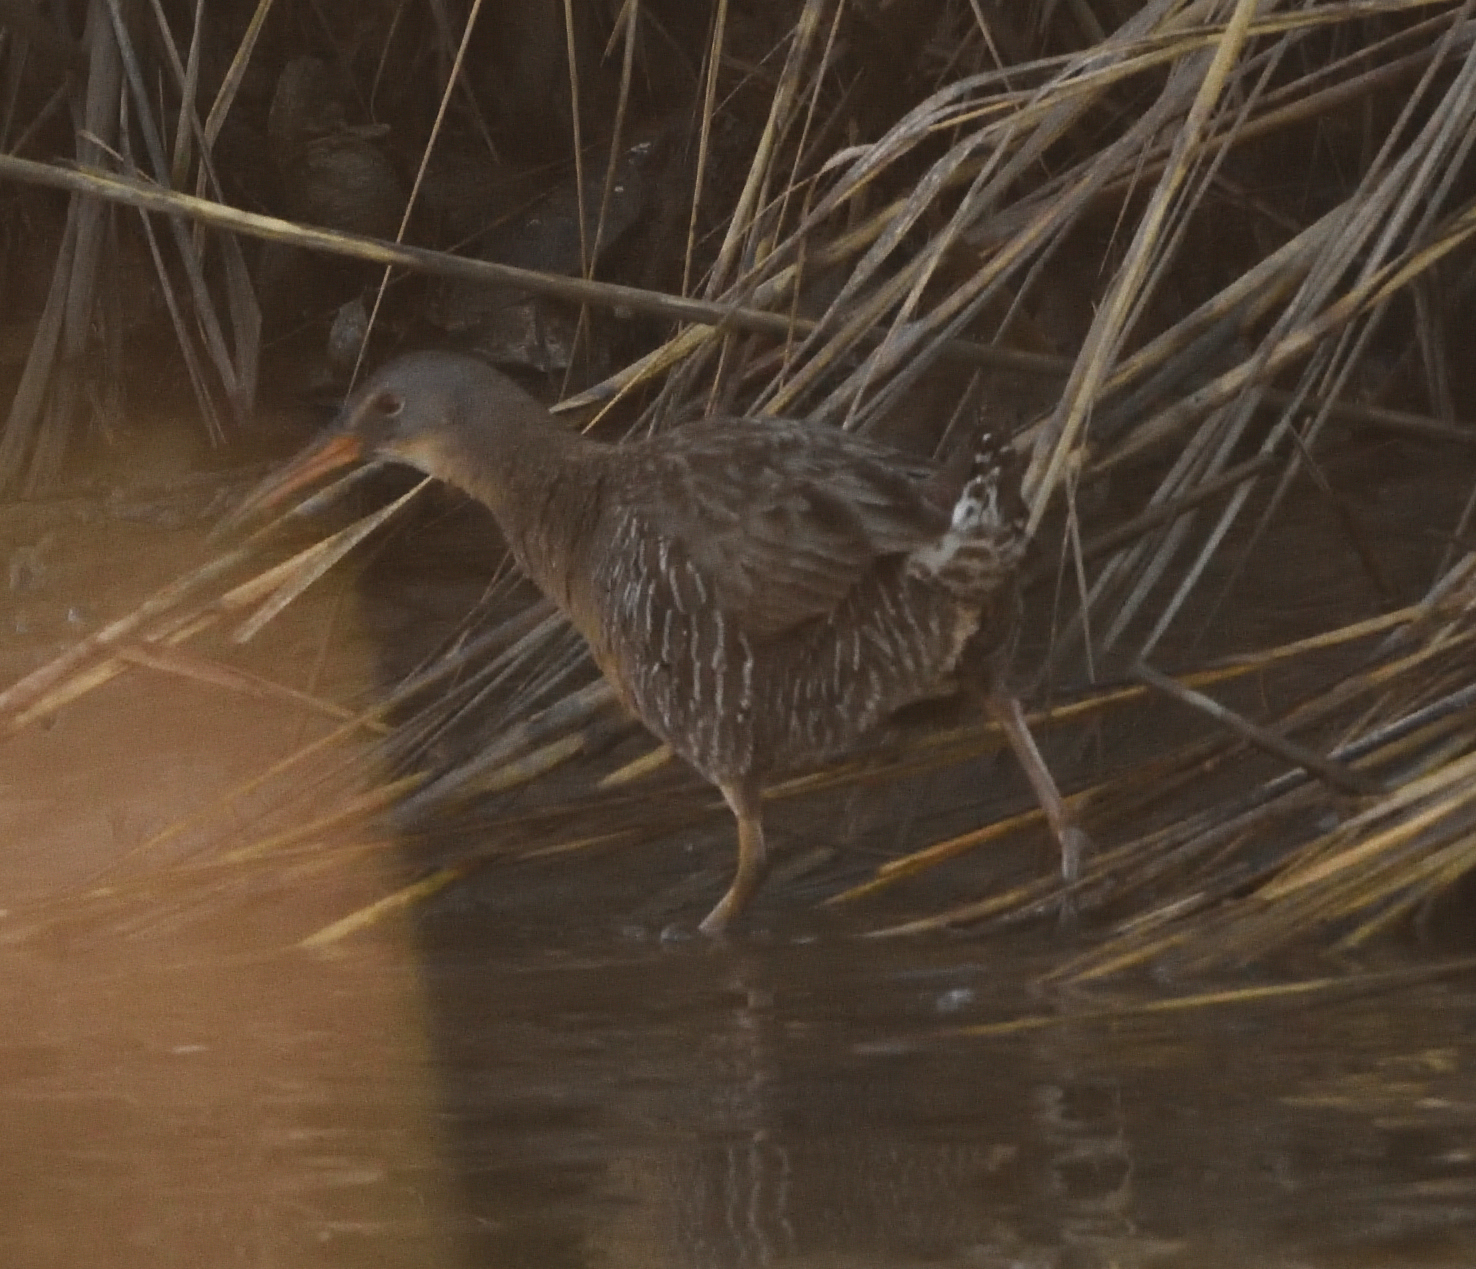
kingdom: Animalia
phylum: Chordata
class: Aves
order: Gruiformes
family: Rallidae
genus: Rallus
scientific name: Rallus crepitans
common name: Clapper rail
